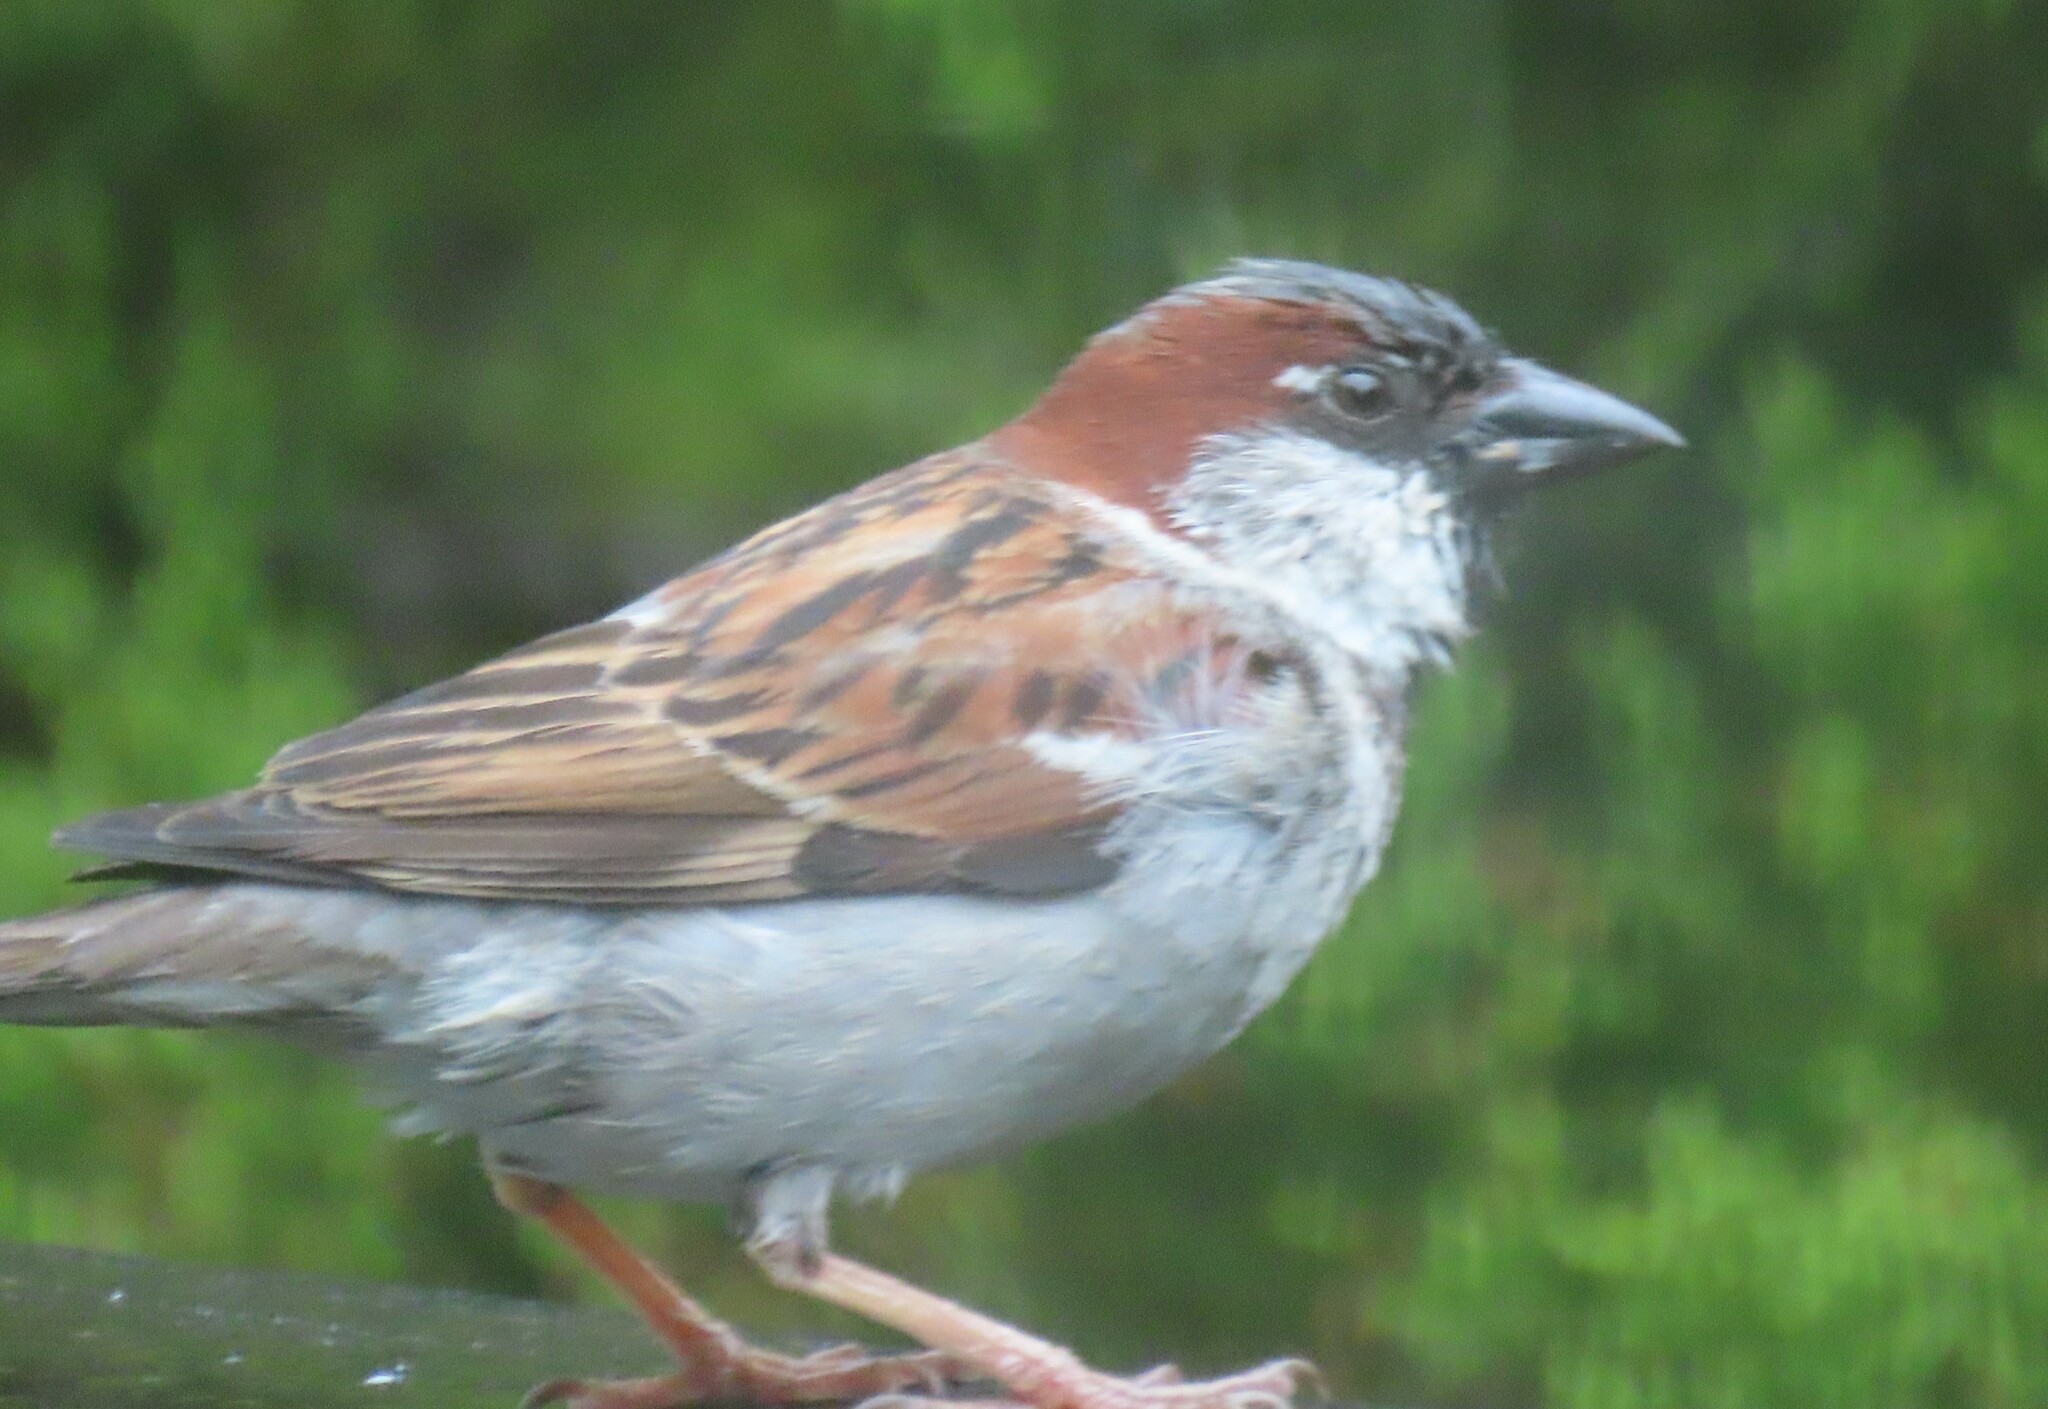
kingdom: Animalia
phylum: Chordata
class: Aves
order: Passeriformes
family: Passeridae
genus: Passer
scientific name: Passer domesticus
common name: House sparrow
